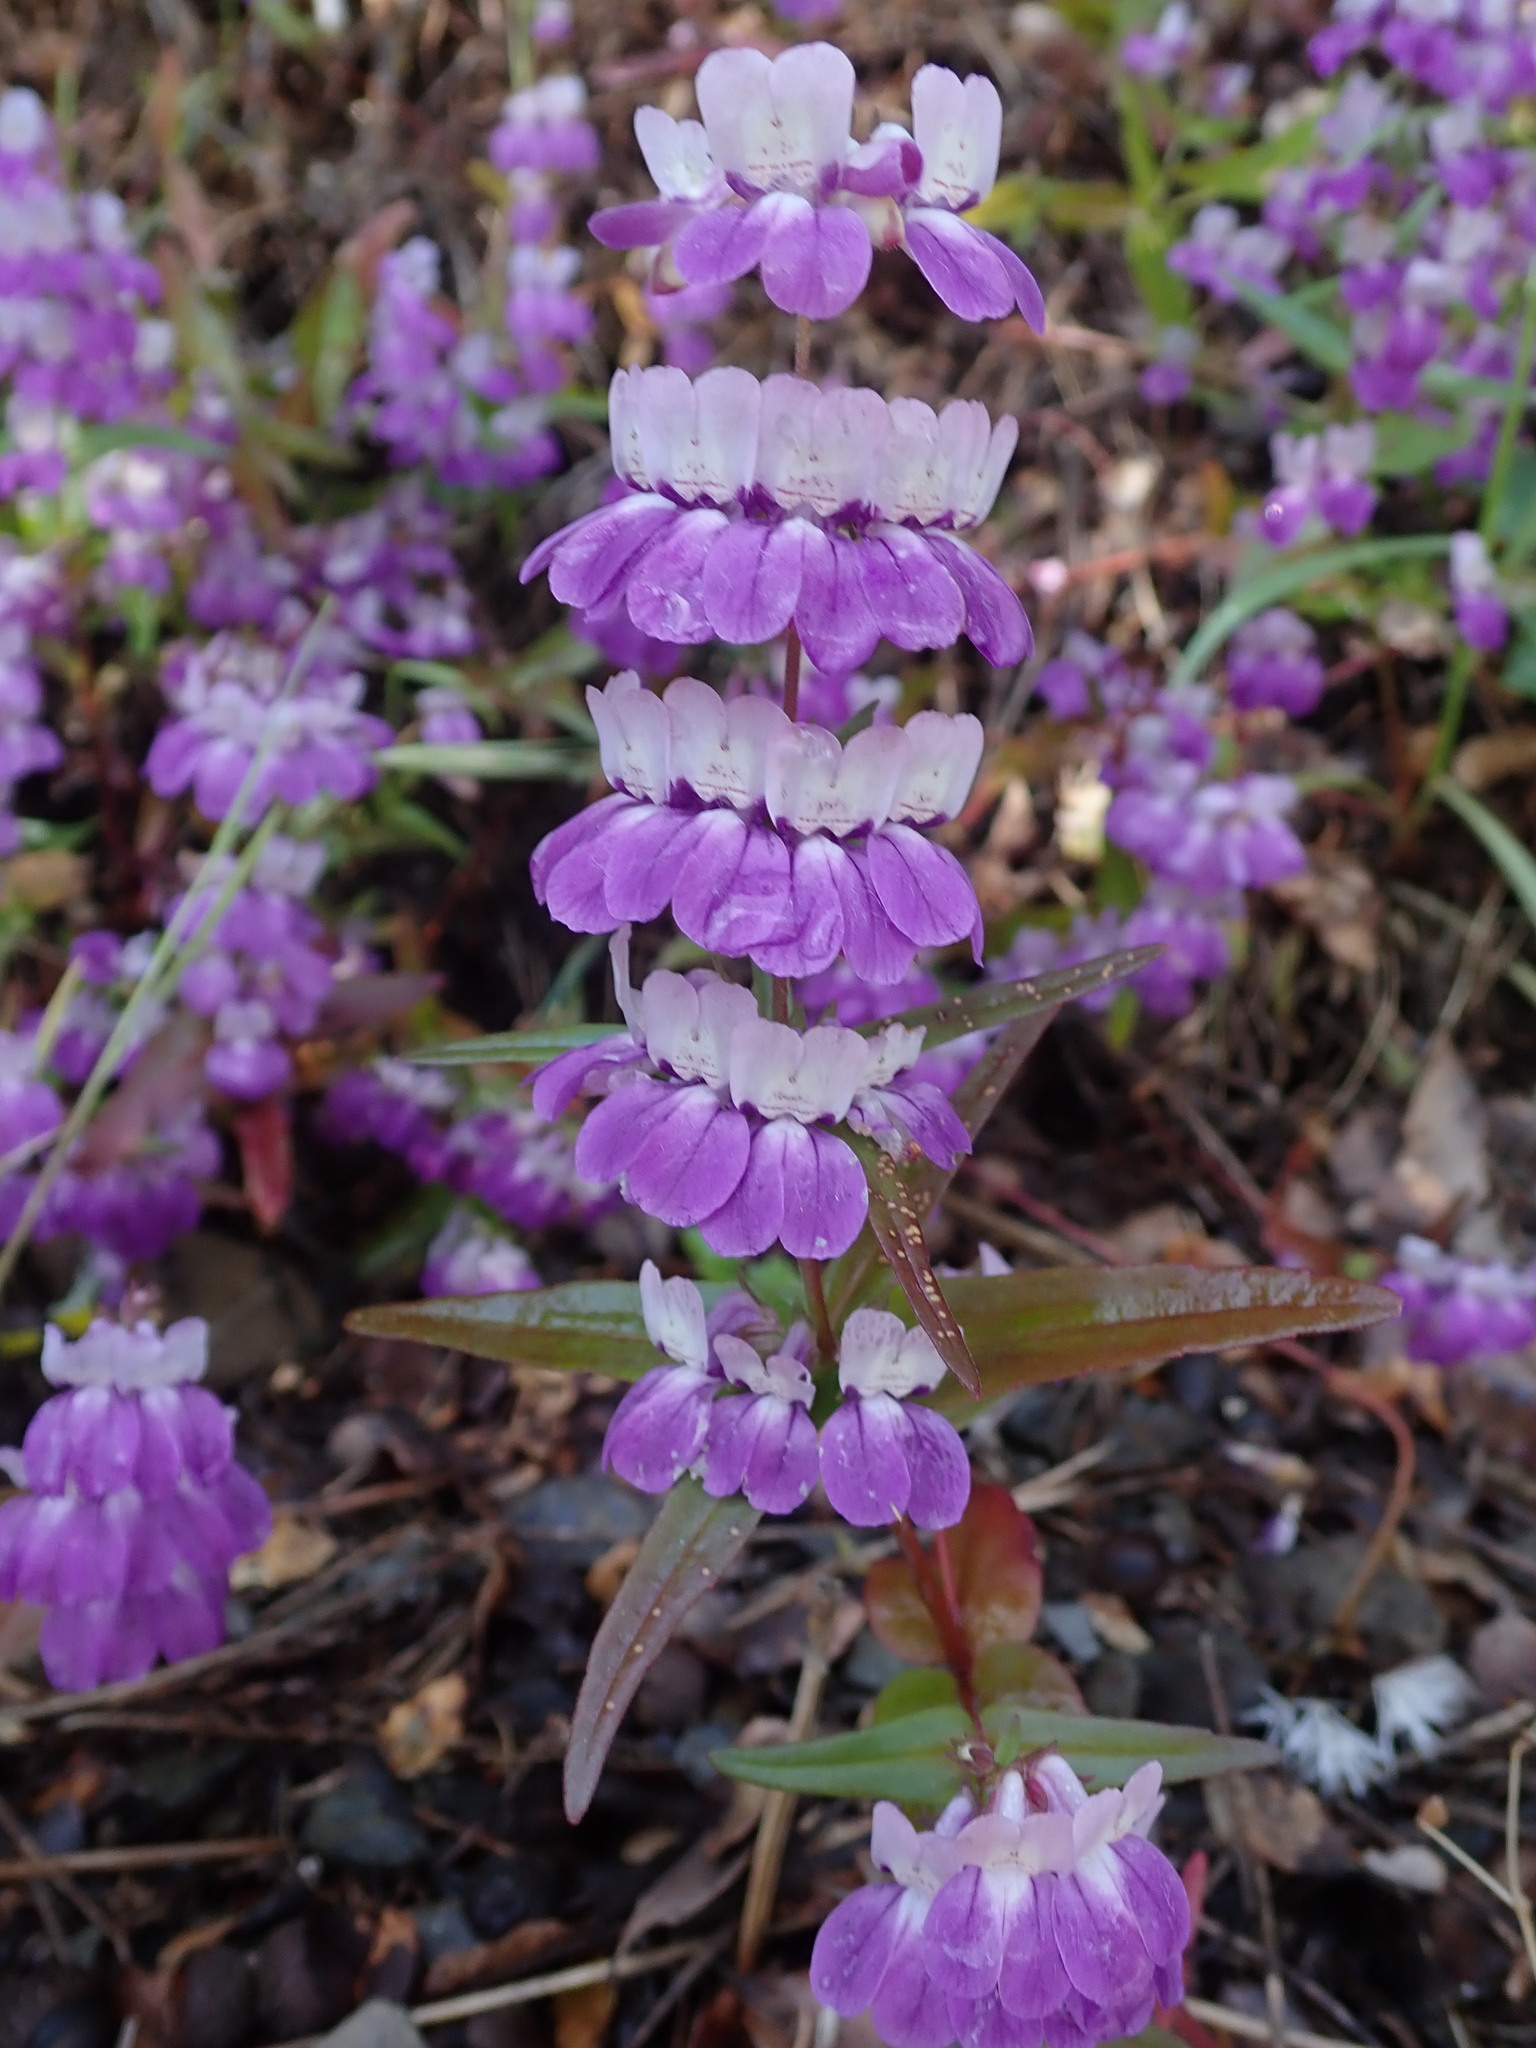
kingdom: Plantae
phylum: Tracheophyta
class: Magnoliopsida
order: Lamiales
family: Plantaginaceae
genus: Collinsia
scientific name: Collinsia heterophylla
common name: Chinese-houses
